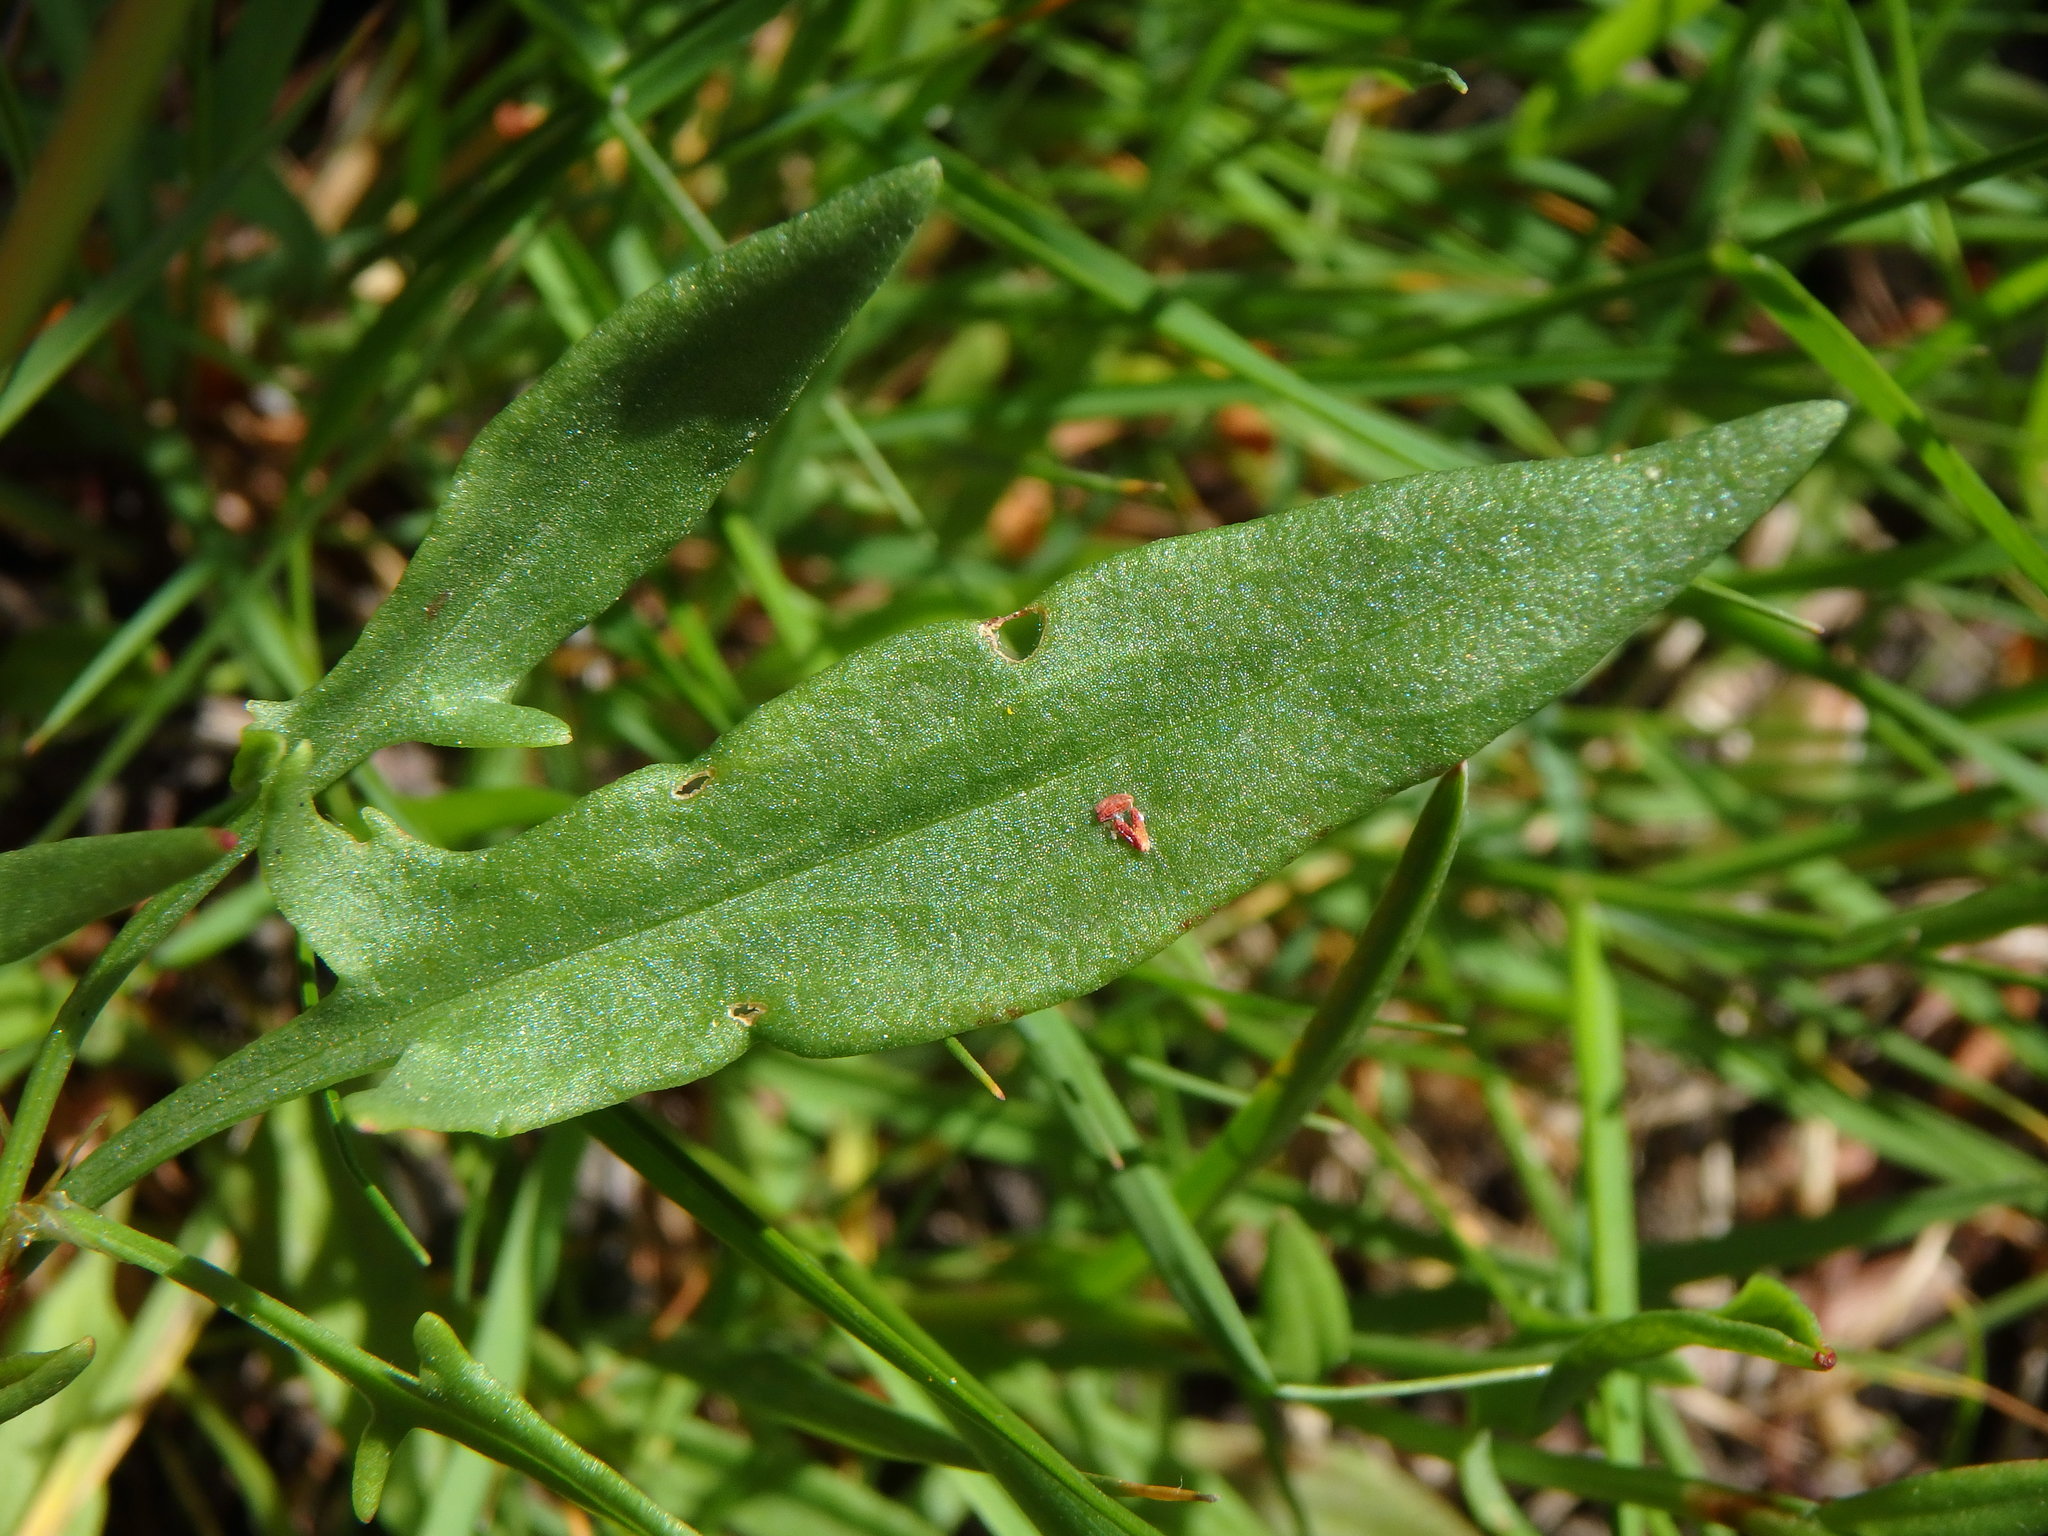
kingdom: Plantae
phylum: Tracheophyta
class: Magnoliopsida
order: Caryophyllales
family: Polygonaceae
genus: Rumex
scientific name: Rumex acetosella
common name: Common sheep sorrel
